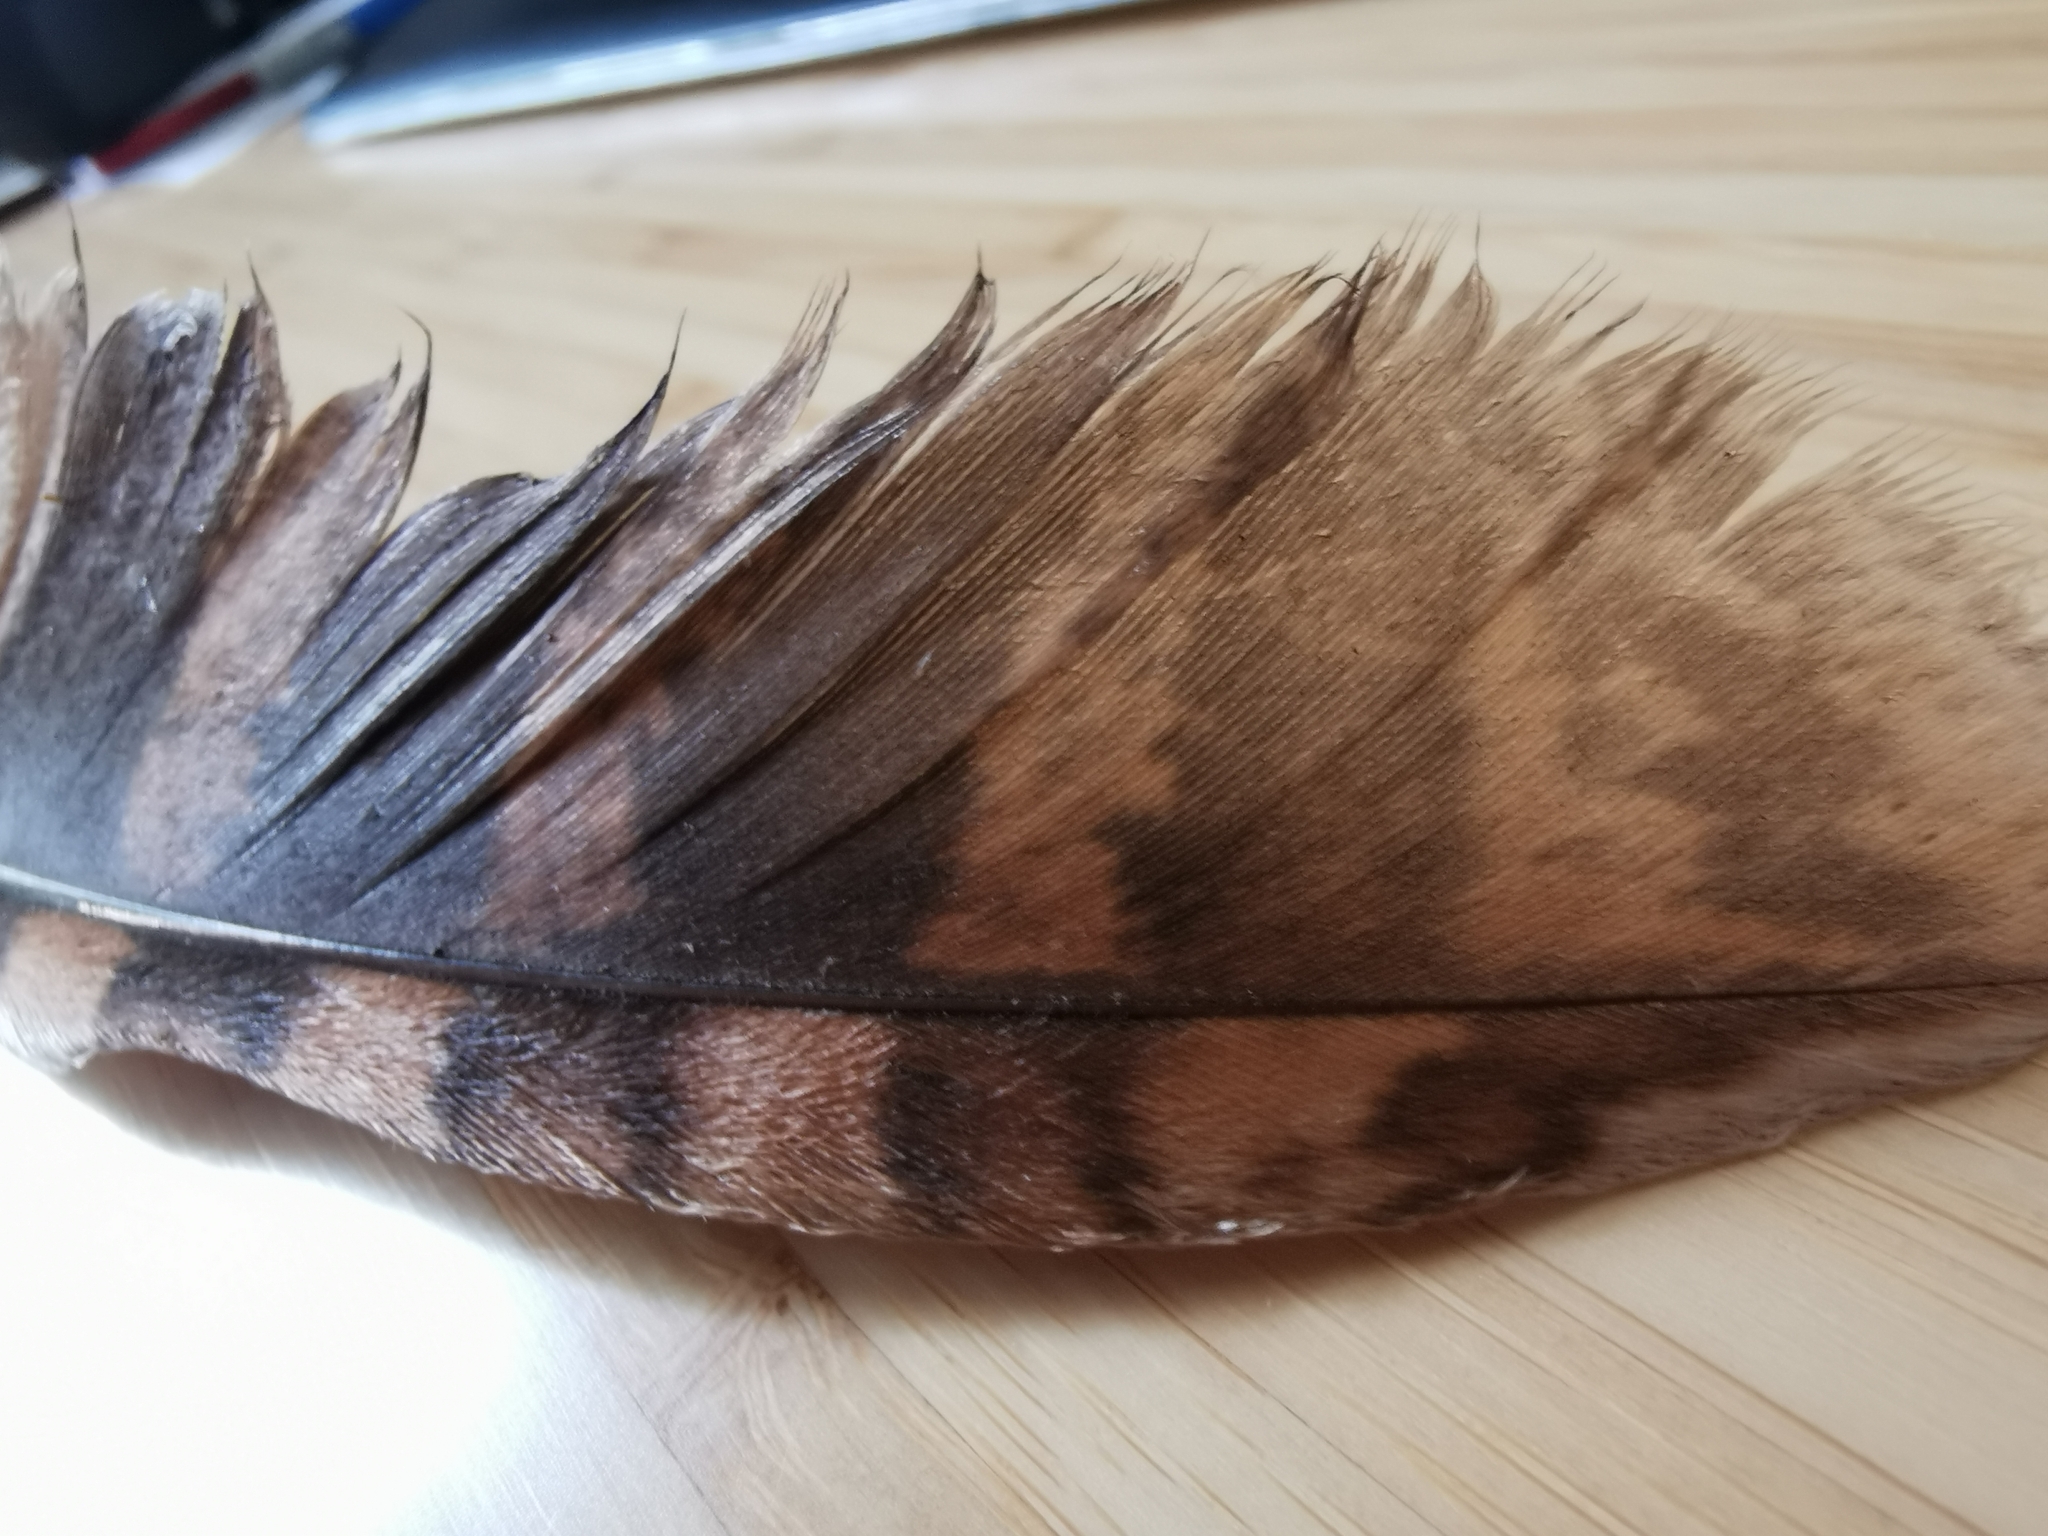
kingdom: Animalia
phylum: Chordata
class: Aves
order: Strigiformes
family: Strigidae
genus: Strix
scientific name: Strix aluco
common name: Tawny owl
